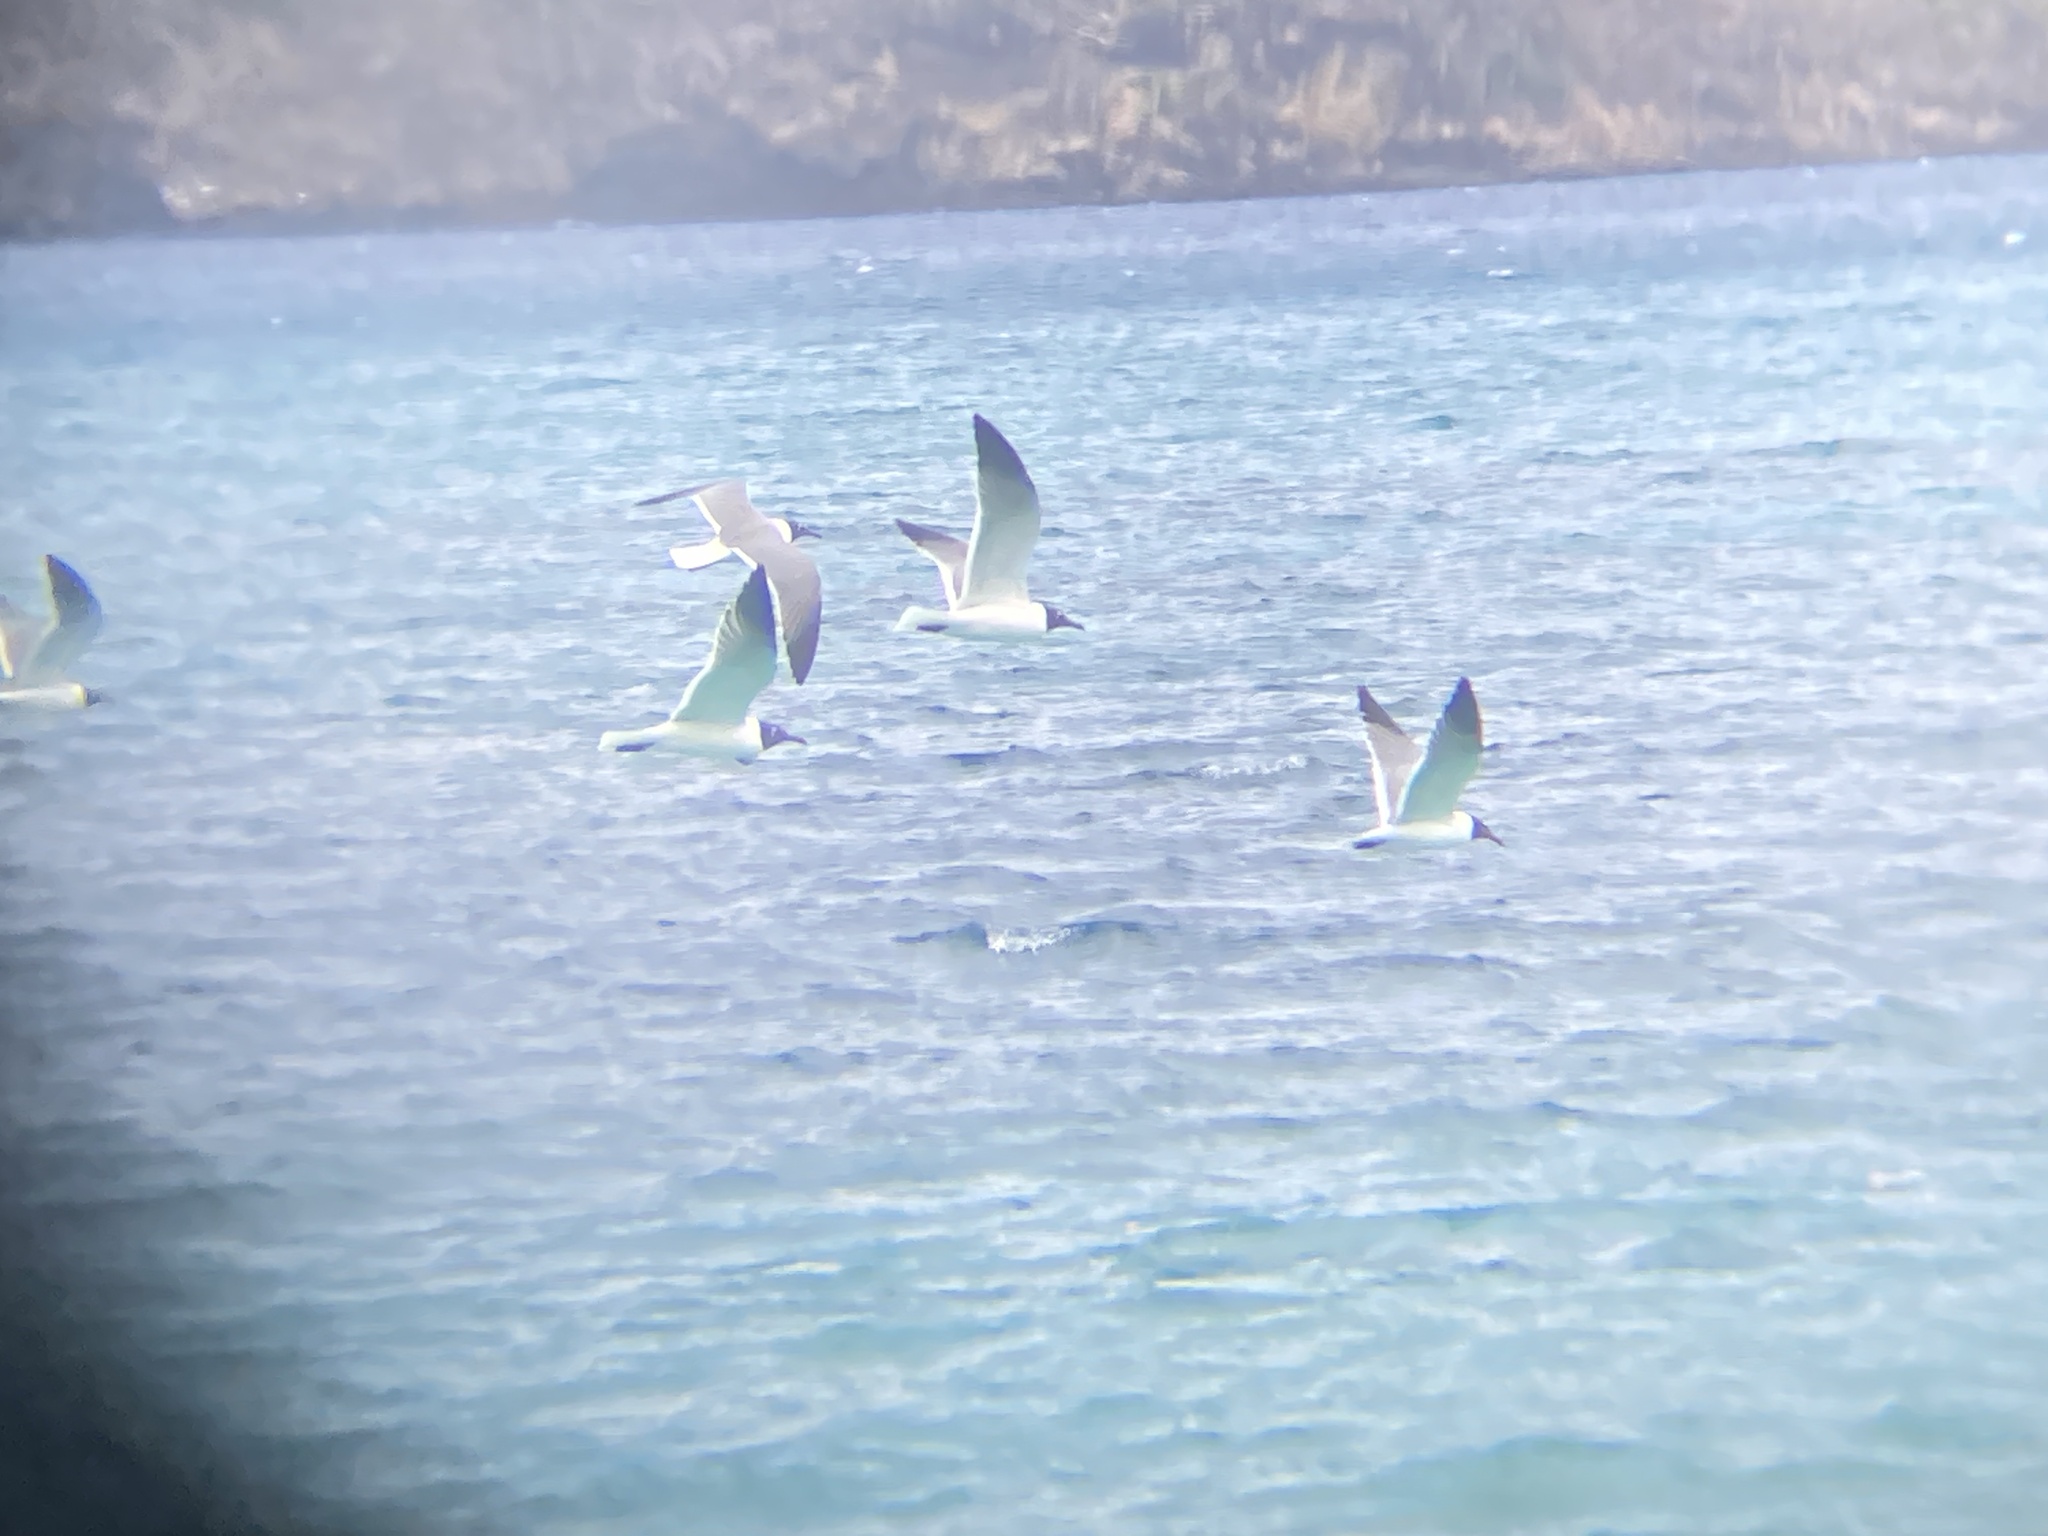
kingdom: Animalia
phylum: Chordata
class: Aves
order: Charadriiformes
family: Laridae
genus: Leucophaeus
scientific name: Leucophaeus atricilla
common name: Laughing gull
